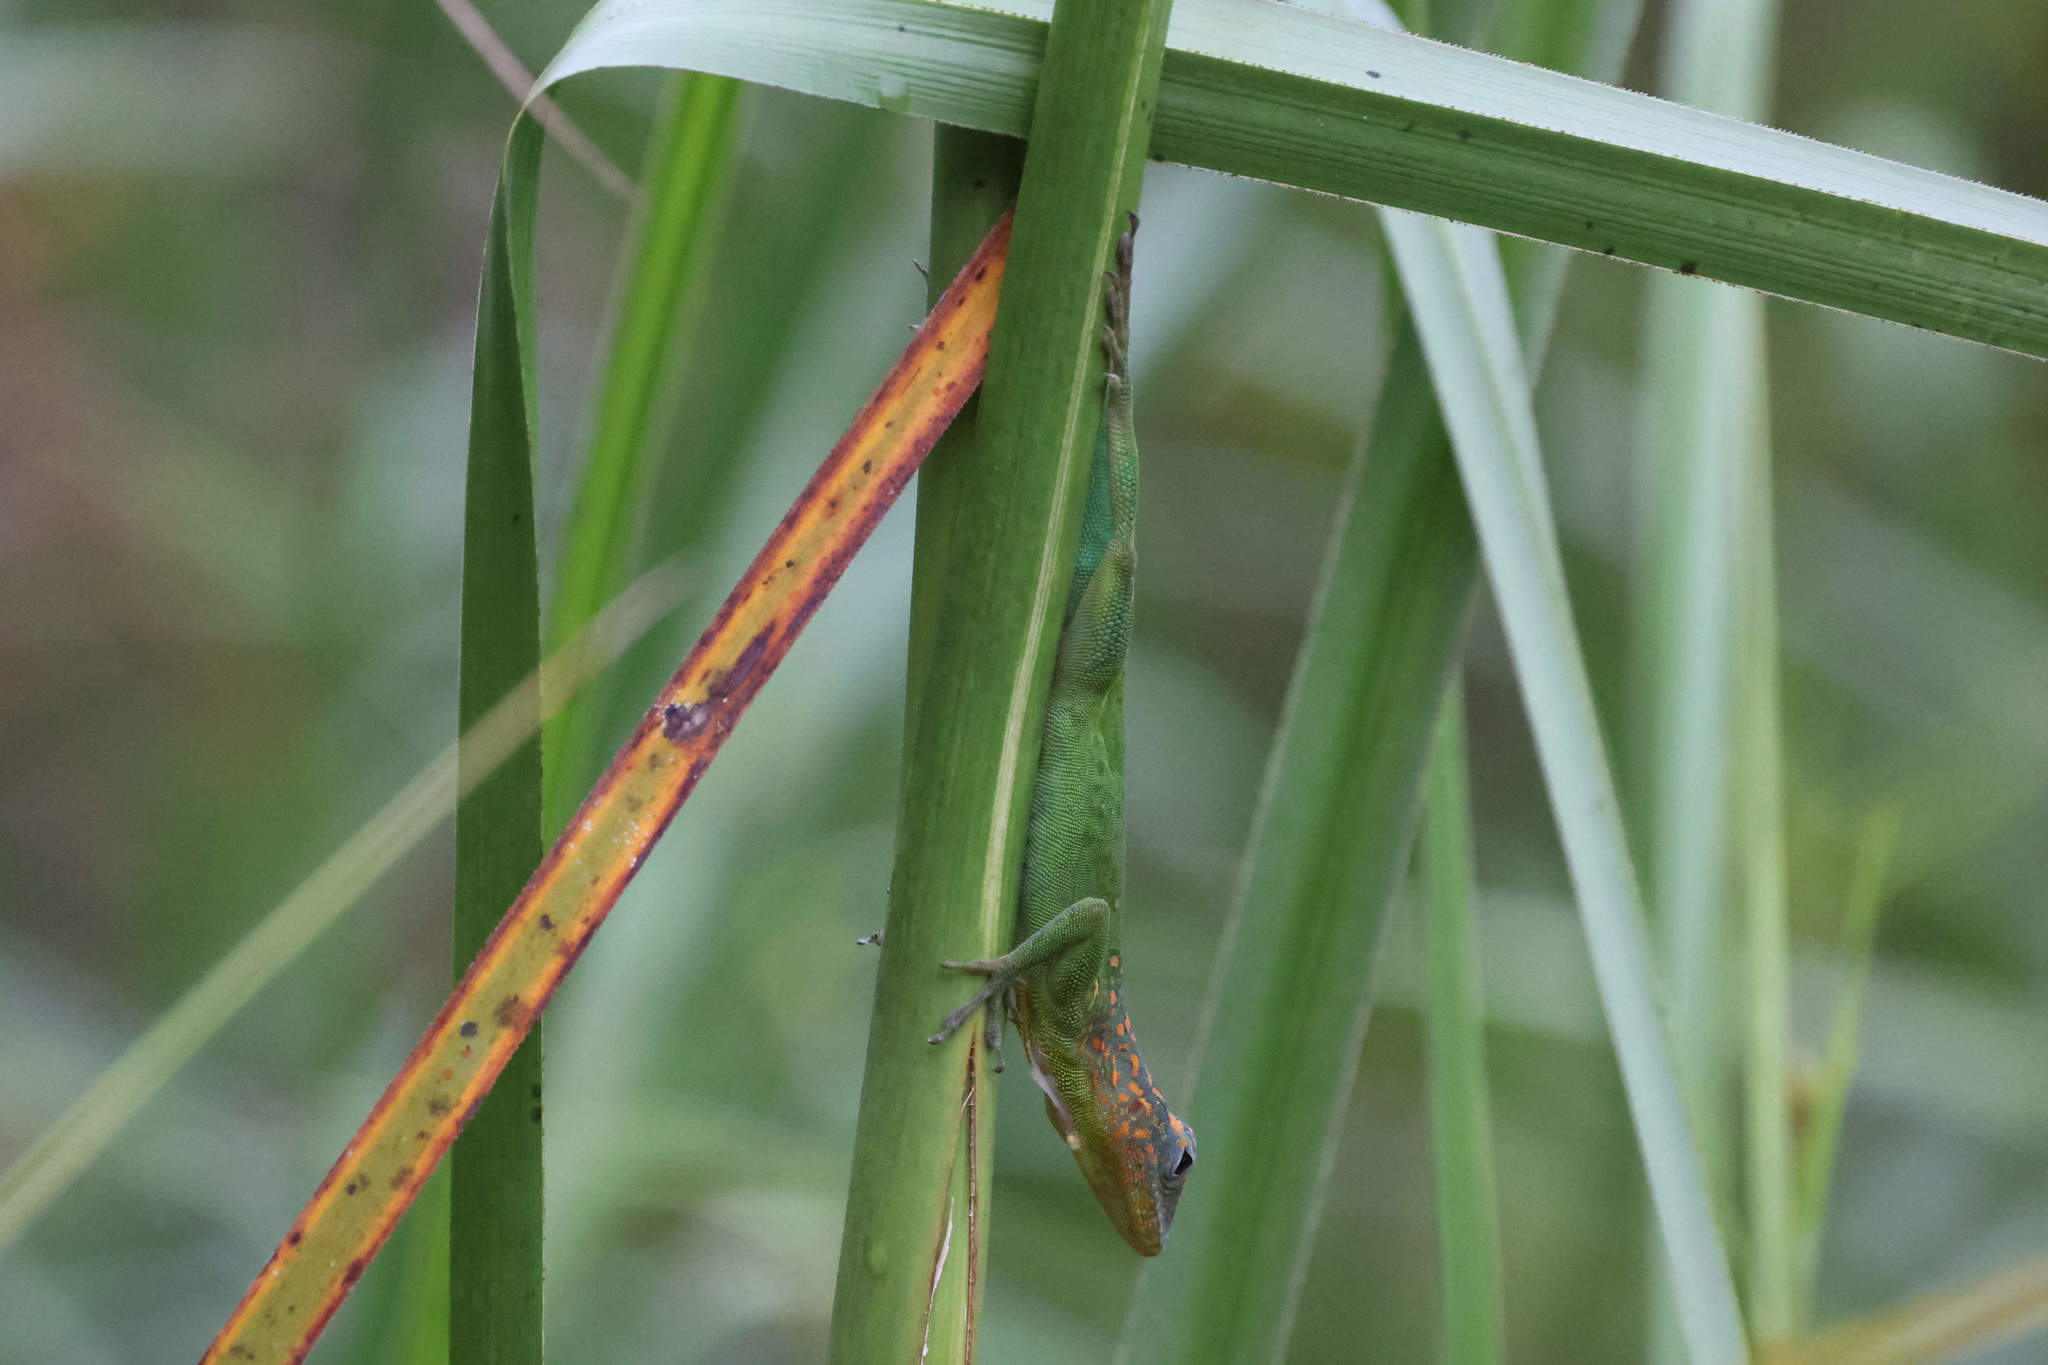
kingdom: Animalia
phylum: Chordata
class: Squamata
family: Dactyloidae
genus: Anolis
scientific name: Anolis marmoratus
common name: Guadeloupe anole
